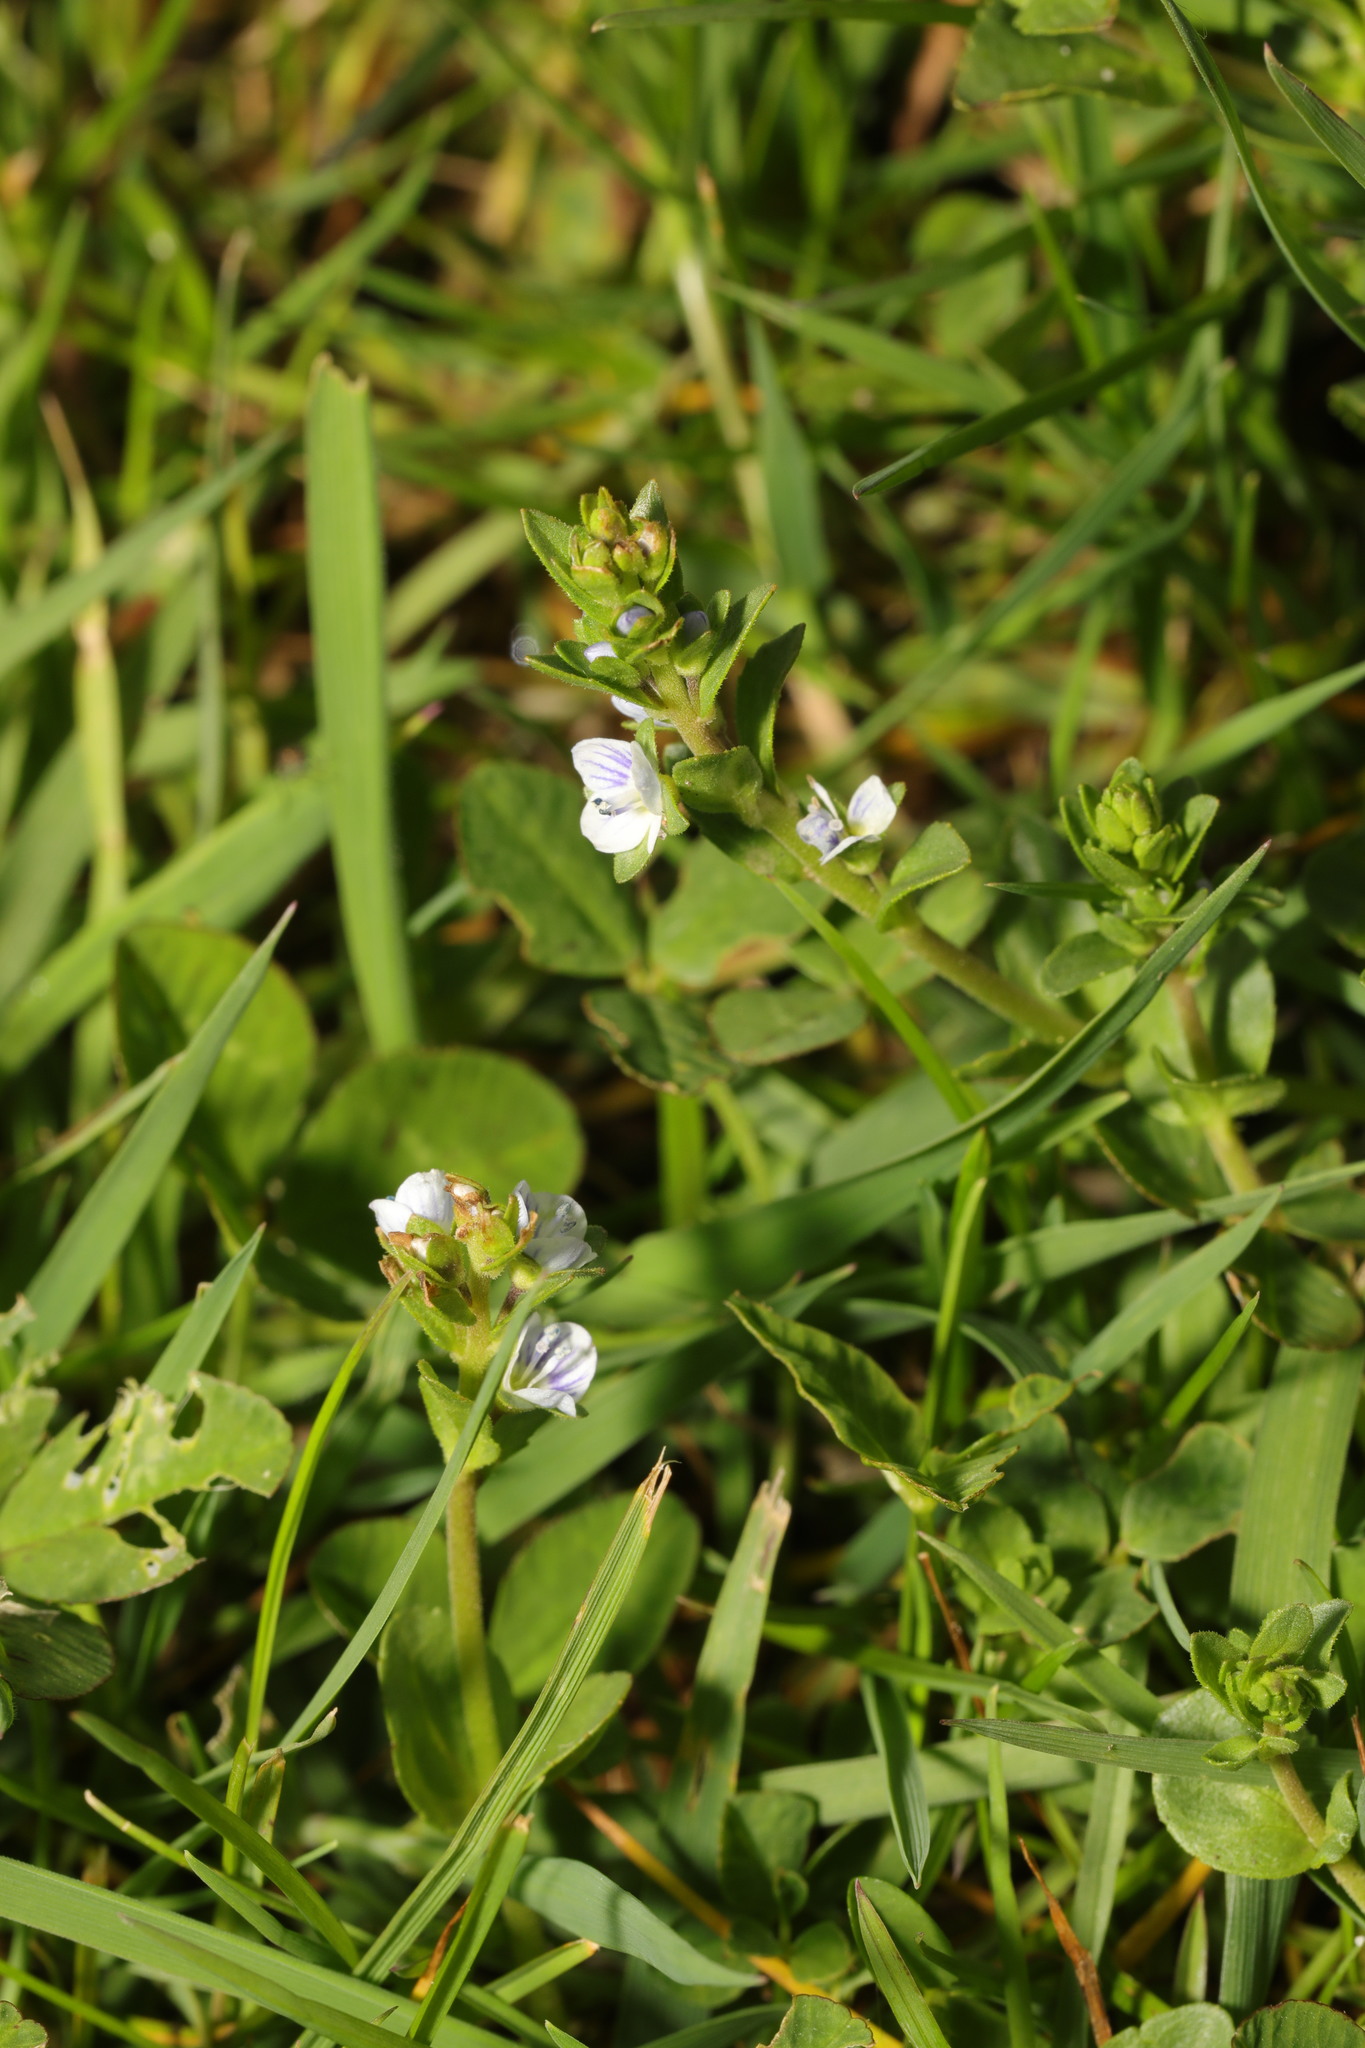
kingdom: Plantae
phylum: Tracheophyta
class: Magnoliopsida
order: Lamiales
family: Plantaginaceae
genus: Veronica
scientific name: Veronica serpyllifolia
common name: Thyme-leaved speedwell
